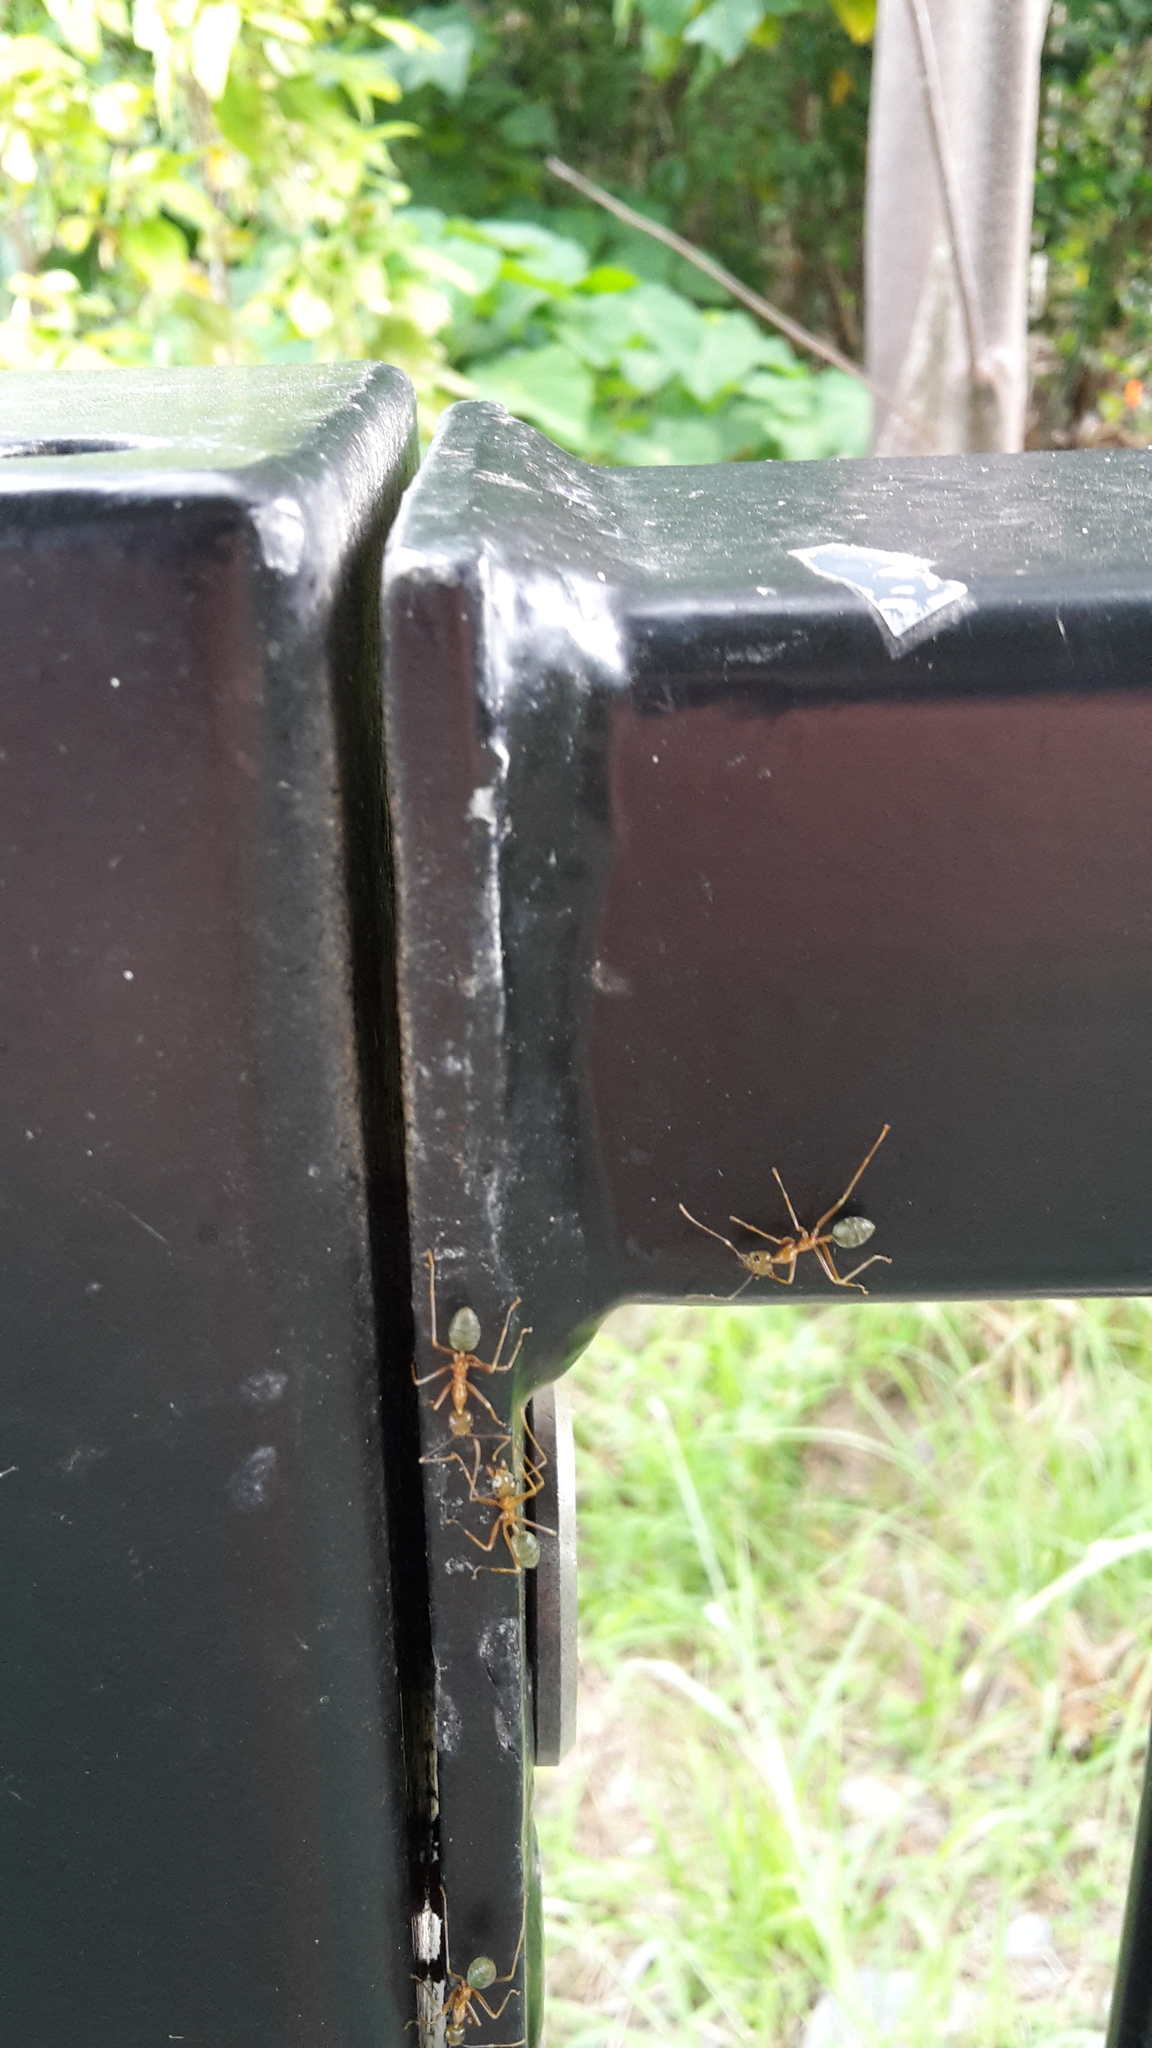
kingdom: Animalia
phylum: Arthropoda
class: Insecta
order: Hymenoptera
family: Formicidae
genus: Oecophylla
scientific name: Oecophylla smaragdina
